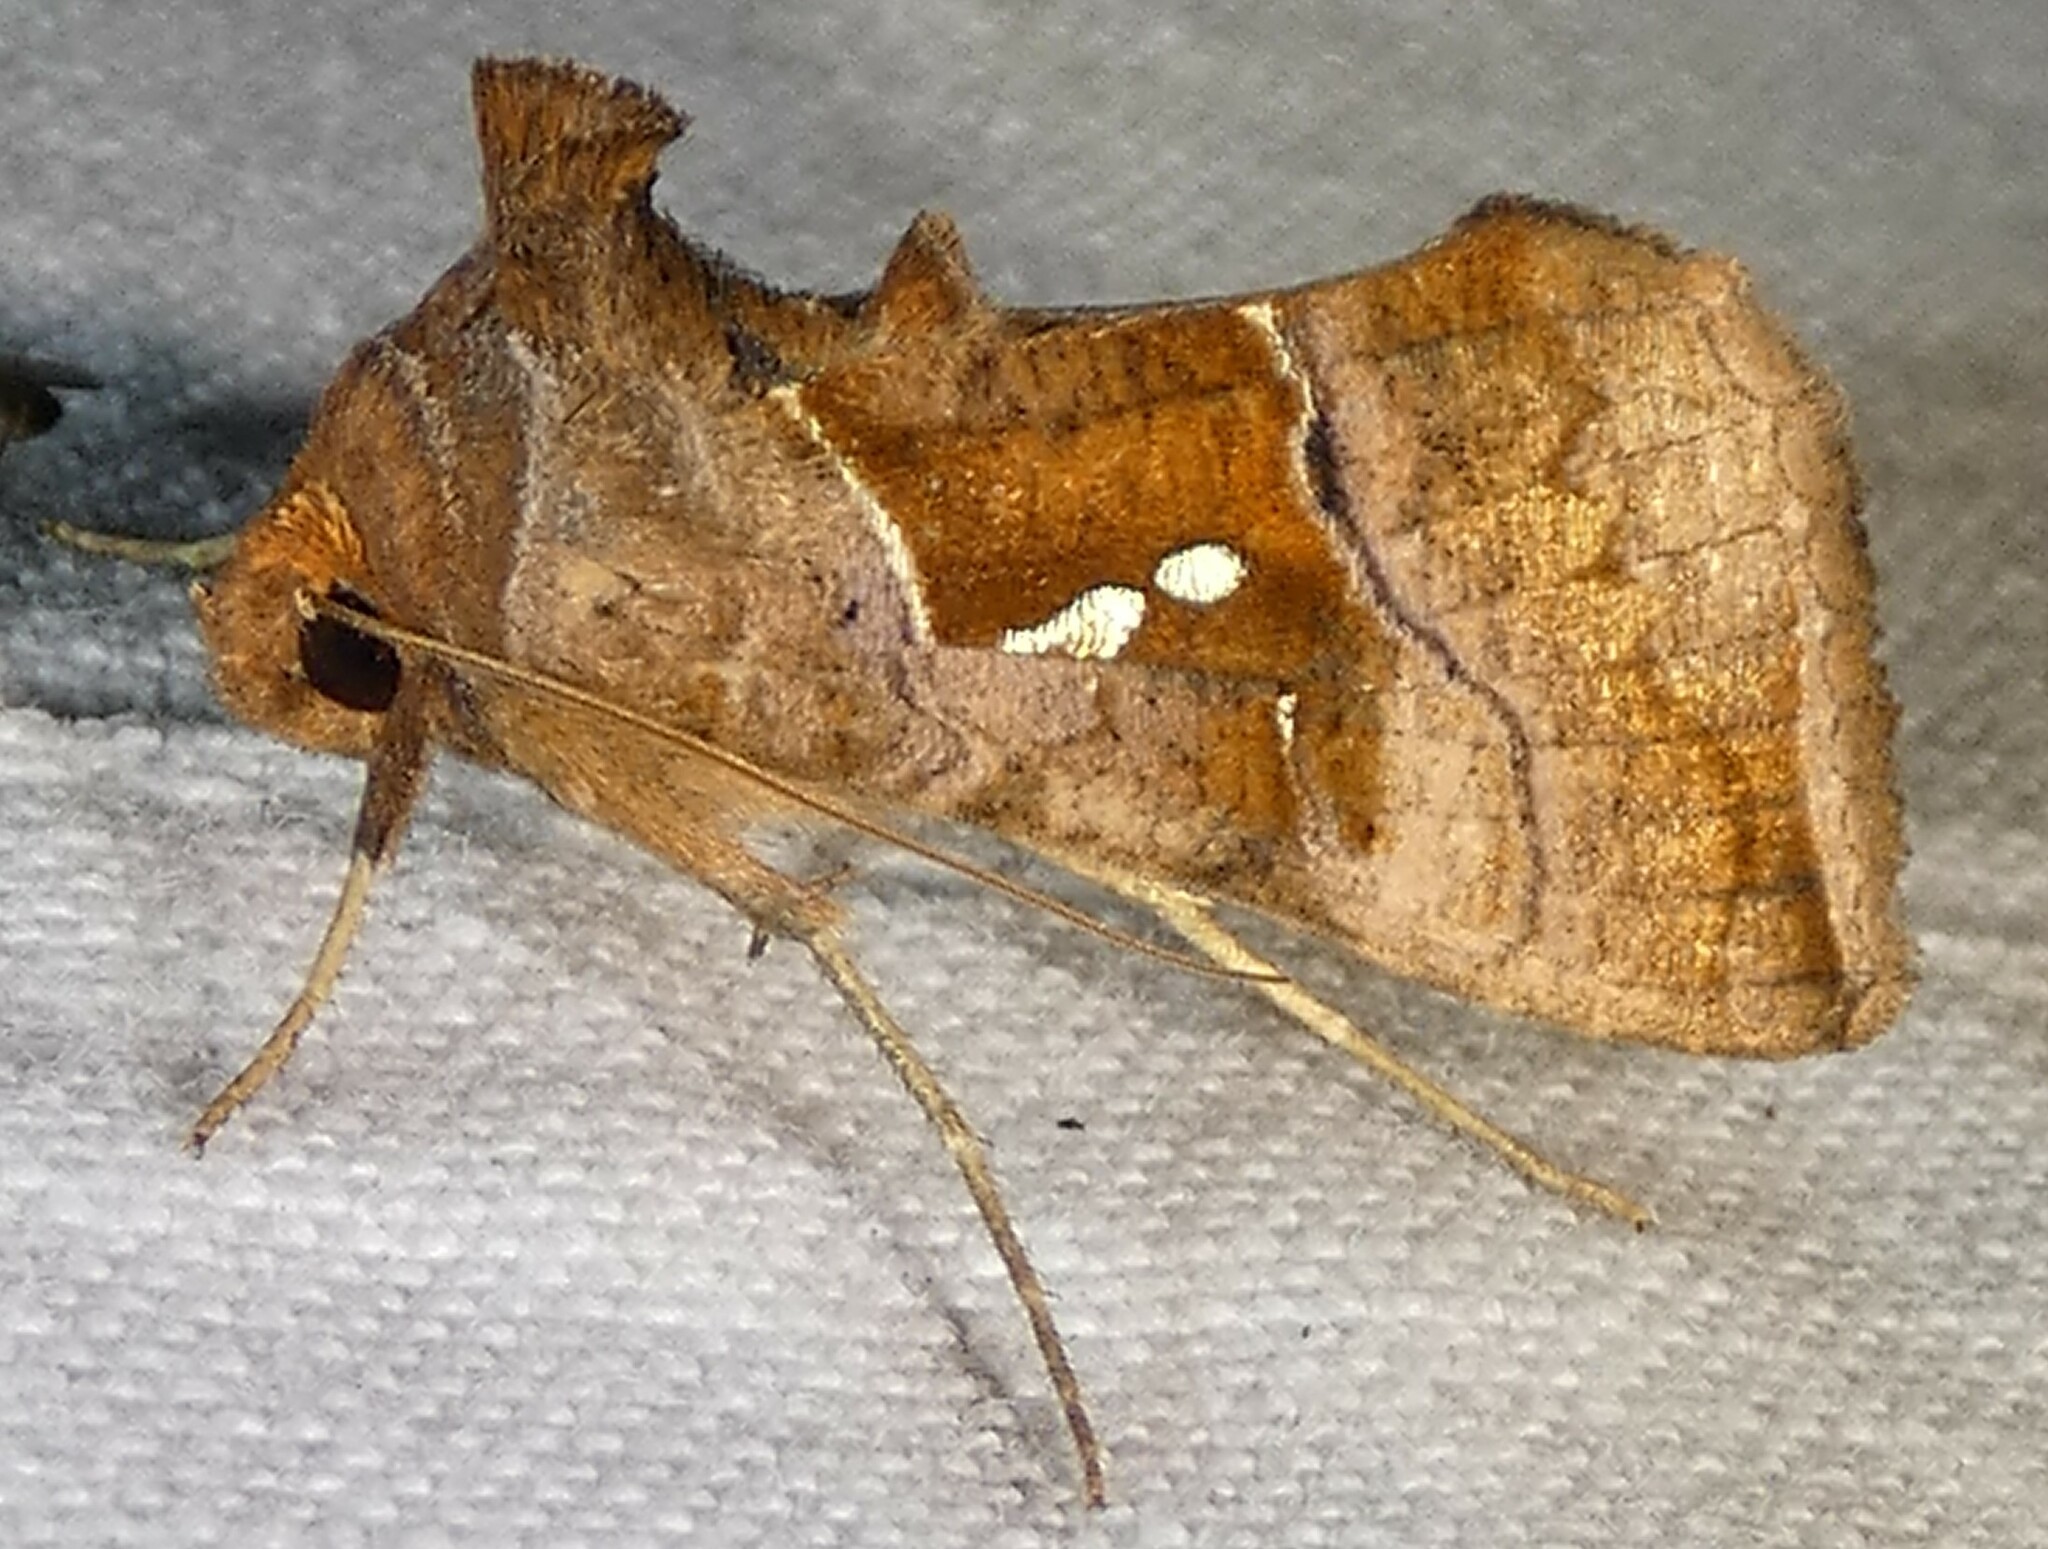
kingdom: Animalia
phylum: Arthropoda
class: Insecta
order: Lepidoptera
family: Noctuidae
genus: Enigmogramma
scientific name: Enigmogramma basigera
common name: Pink-washed looper moth
